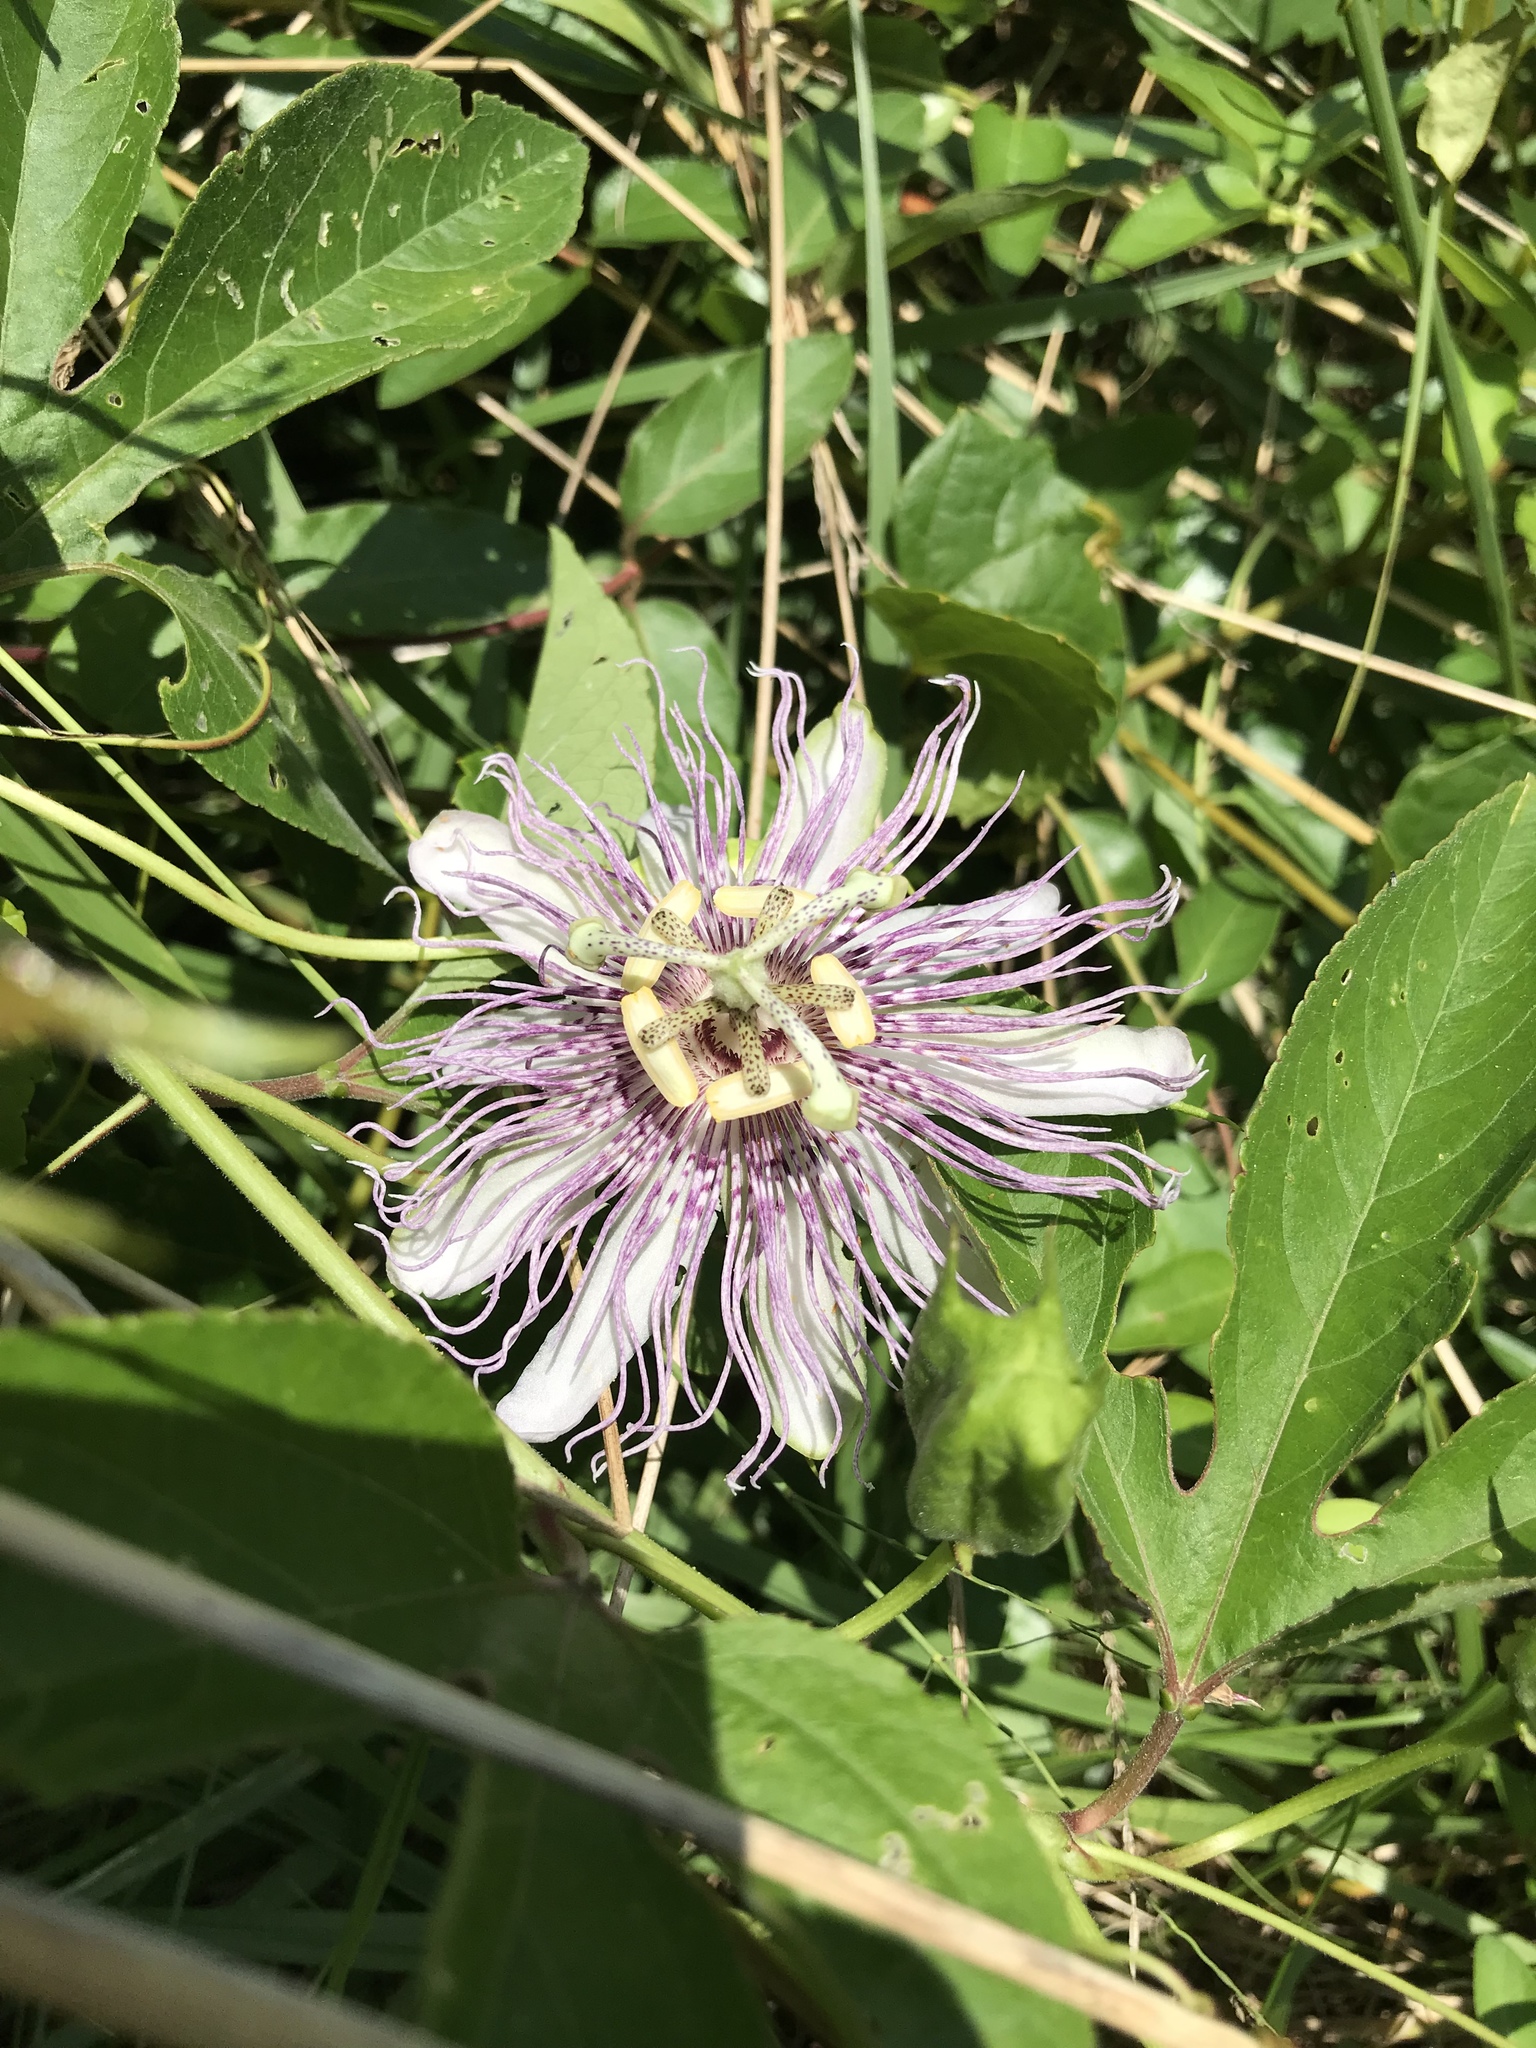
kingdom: Plantae
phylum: Tracheophyta
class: Magnoliopsida
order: Malpighiales
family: Passifloraceae
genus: Passiflora
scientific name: Passiflora incarnata
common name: Apricot-vine
